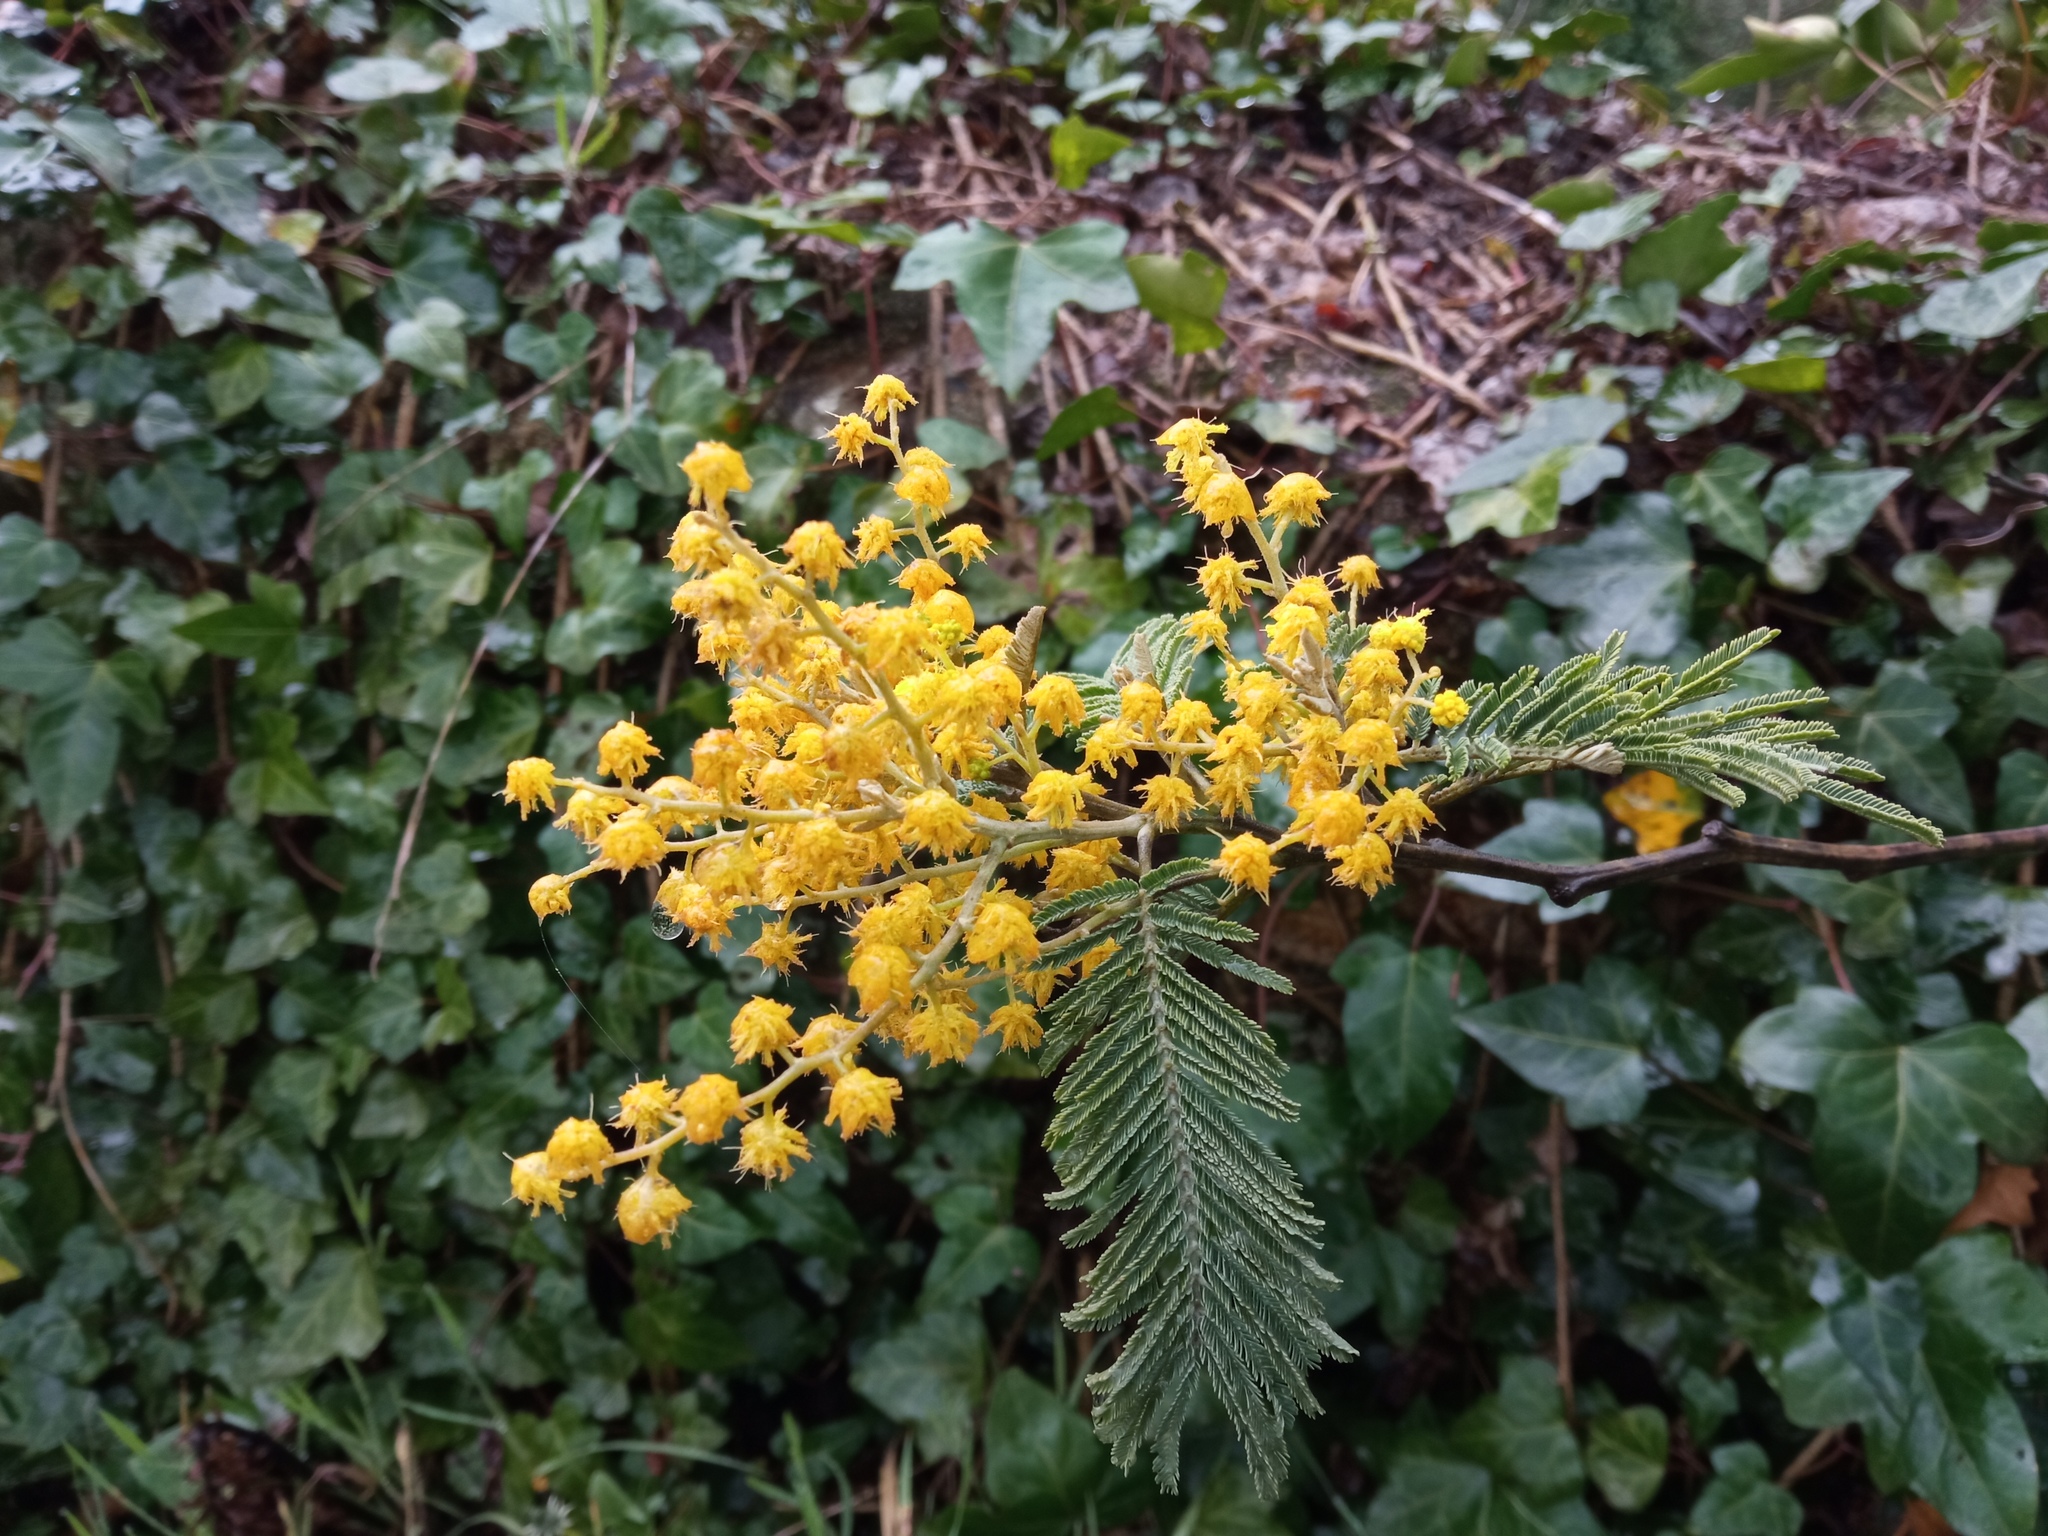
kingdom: Plantae
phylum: Tracheophyta
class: Magnoliopsida
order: Fabales
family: Fabaceae
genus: Acacia
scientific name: Acacia dealbata
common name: Silver wattle
